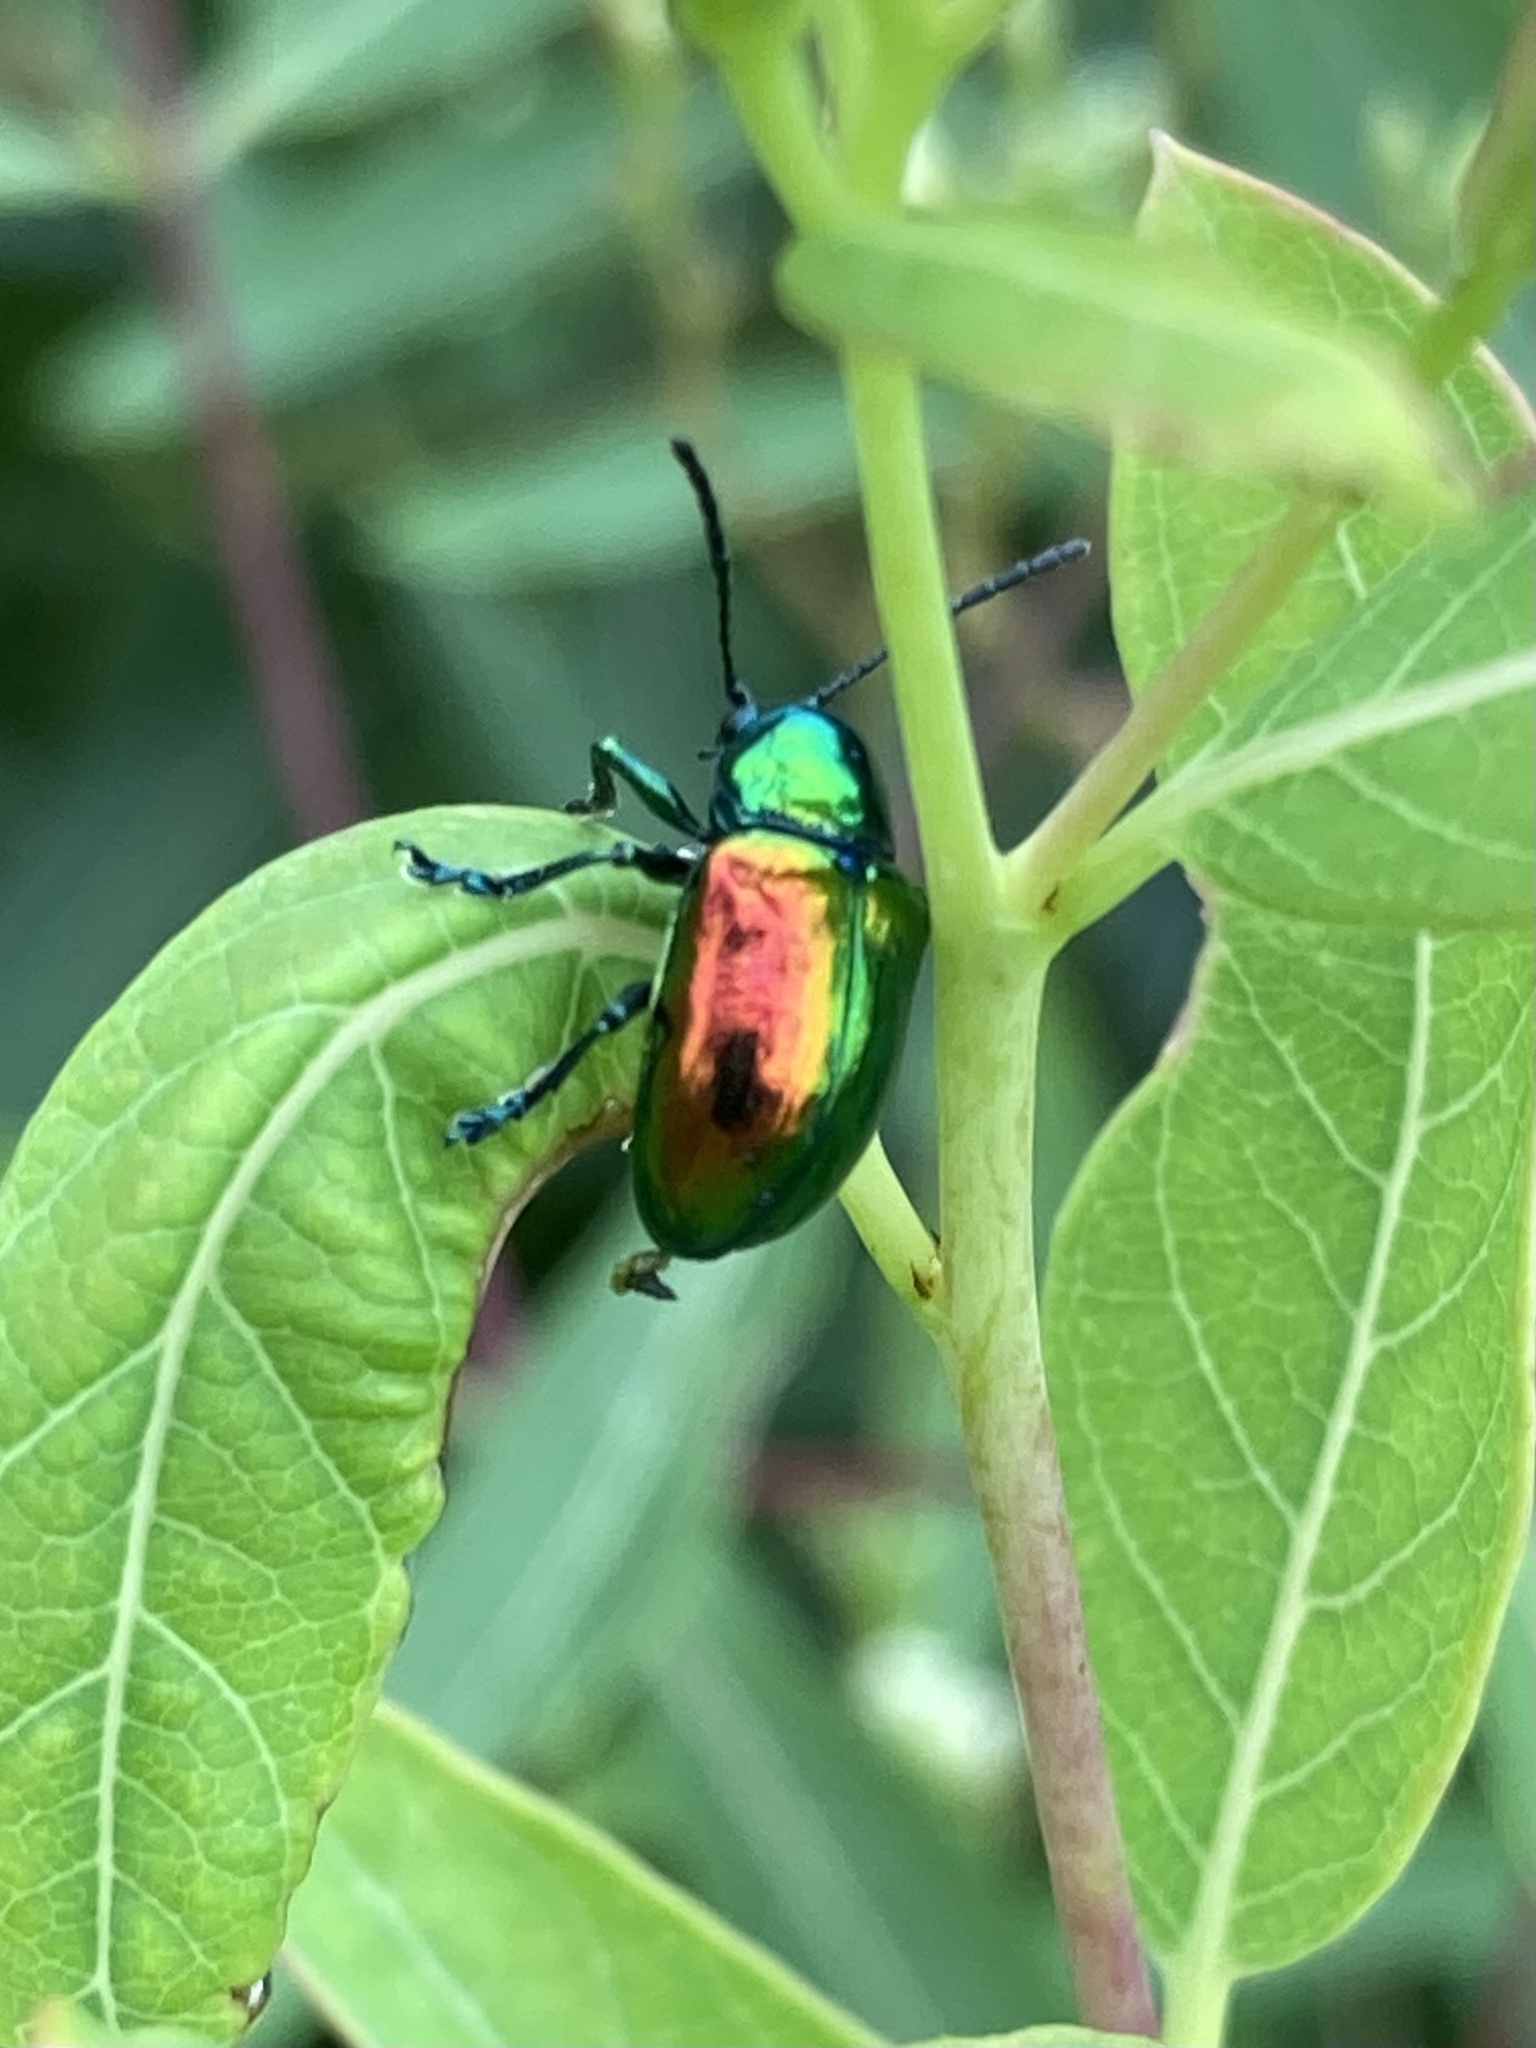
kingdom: Animalia
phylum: Arthropoda
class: Insecta
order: Coleoptera
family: Chrysomelidae
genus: Chrysochus
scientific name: Chrysochus auratus
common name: Dogbane leaf beetle
